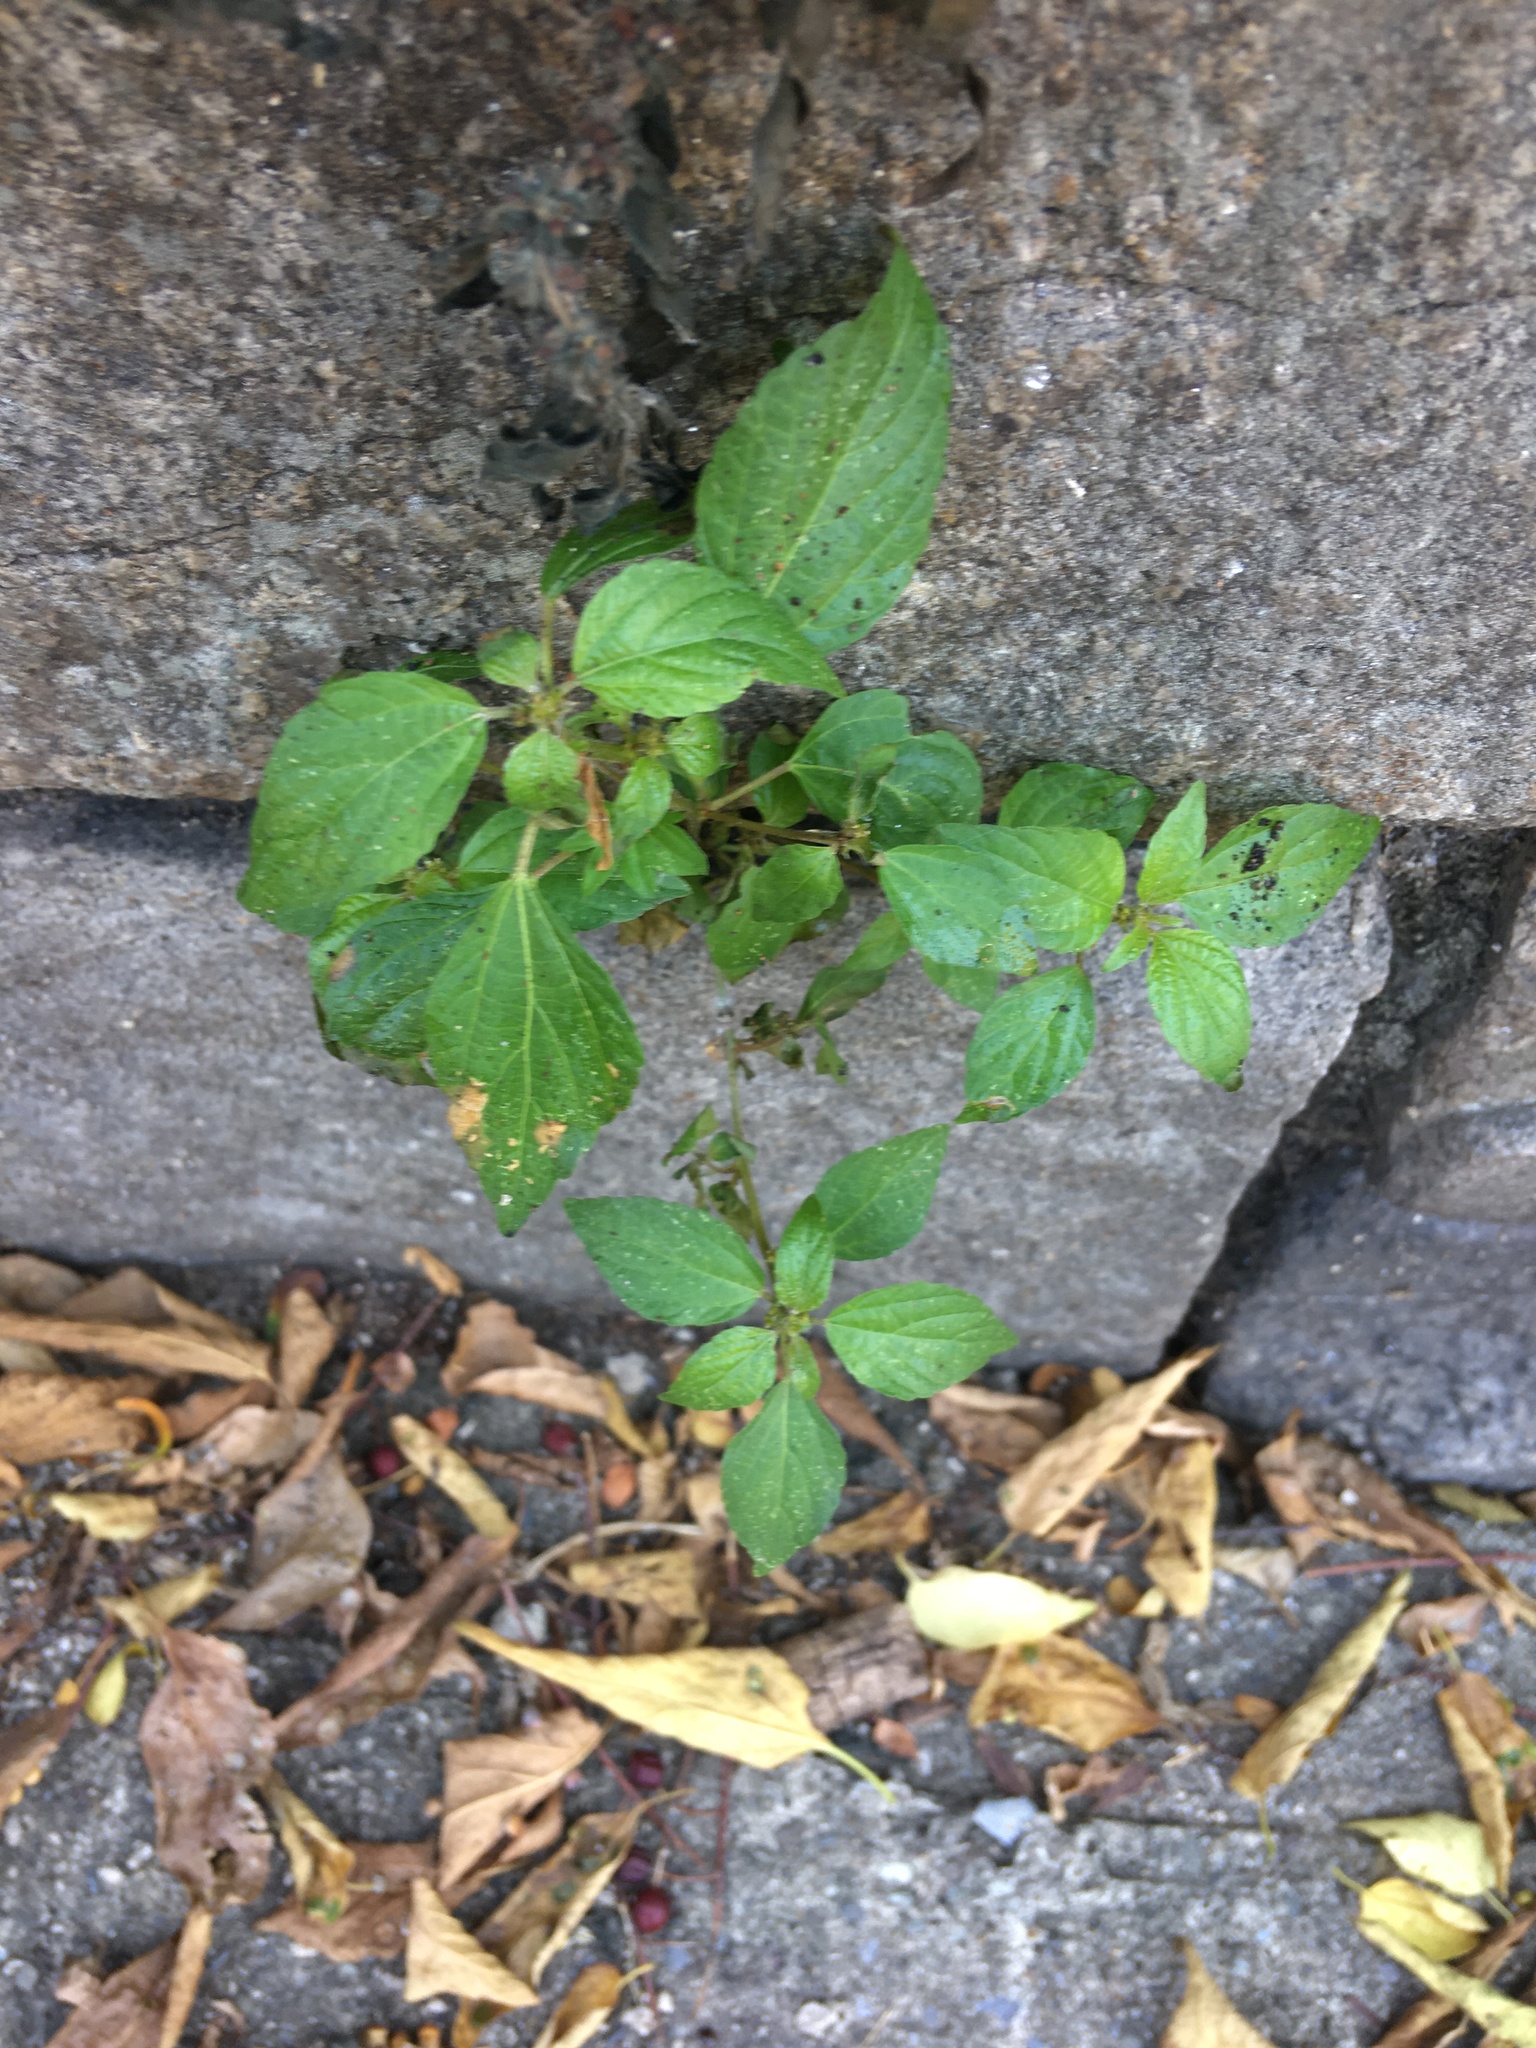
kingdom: Plantae
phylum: Tracheophyta
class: Magnoliopsida
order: Malpighiales
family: Euphorbiaceae
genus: Acalypha
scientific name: Acalypha rhomboidea
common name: Rhombic copperleaf
